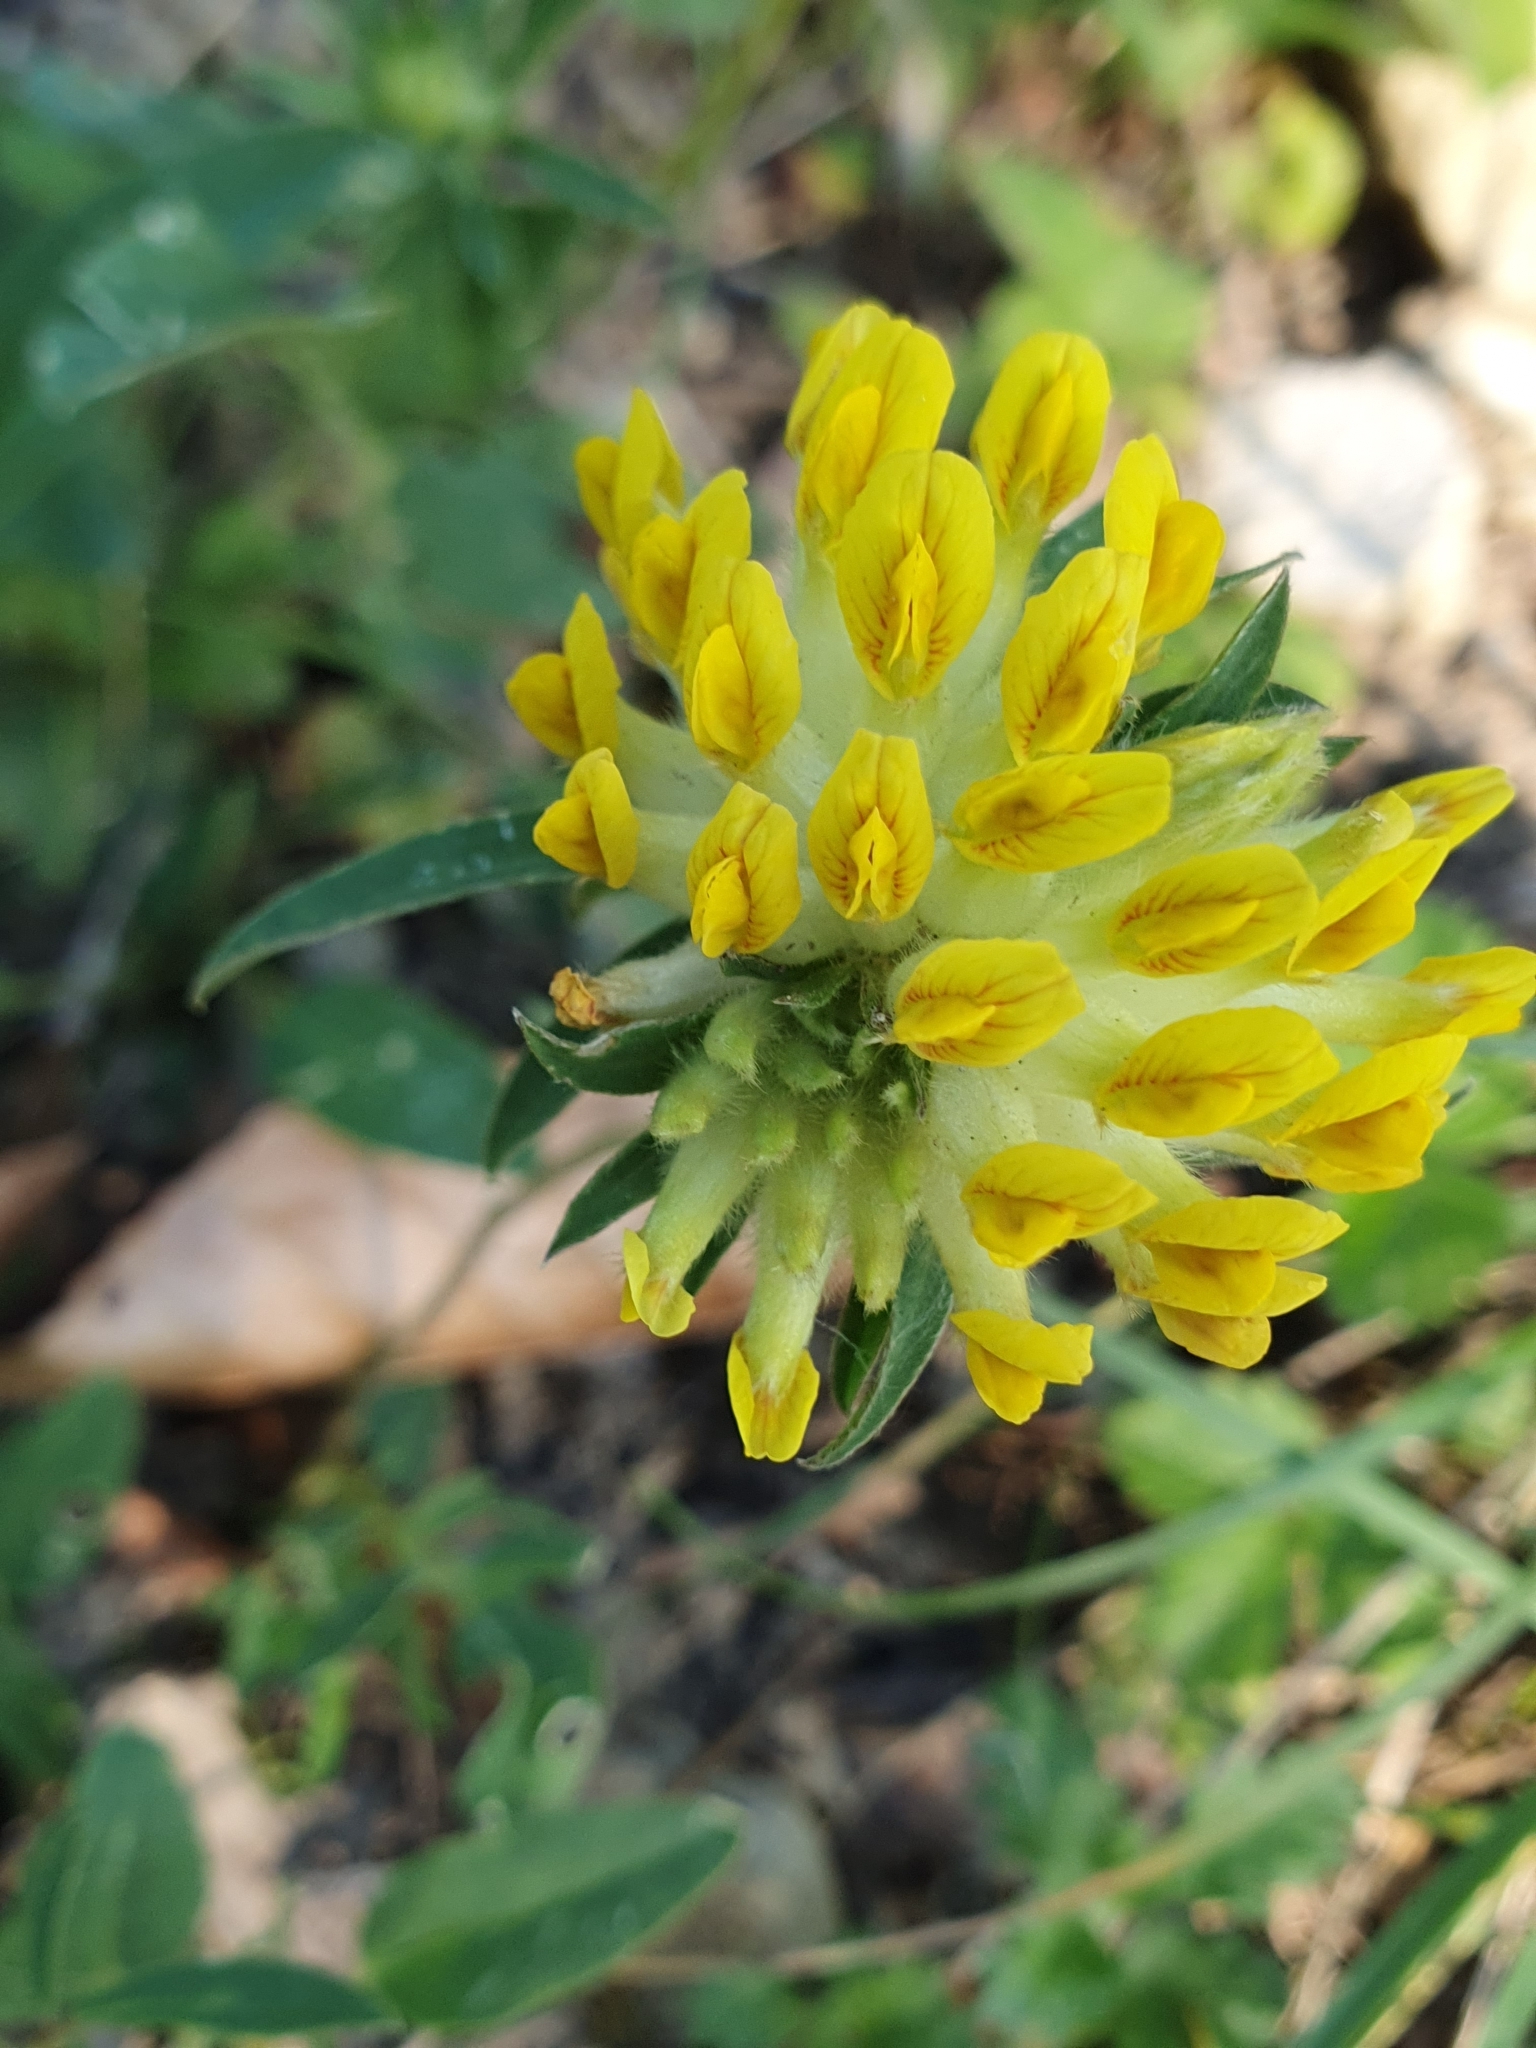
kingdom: Plantae
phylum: Tracheophyta
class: Magnoliopsida
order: Fabales
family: Fabaceae
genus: Anthyllis
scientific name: Anthyllis vulneraria
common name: Kidney vetch
